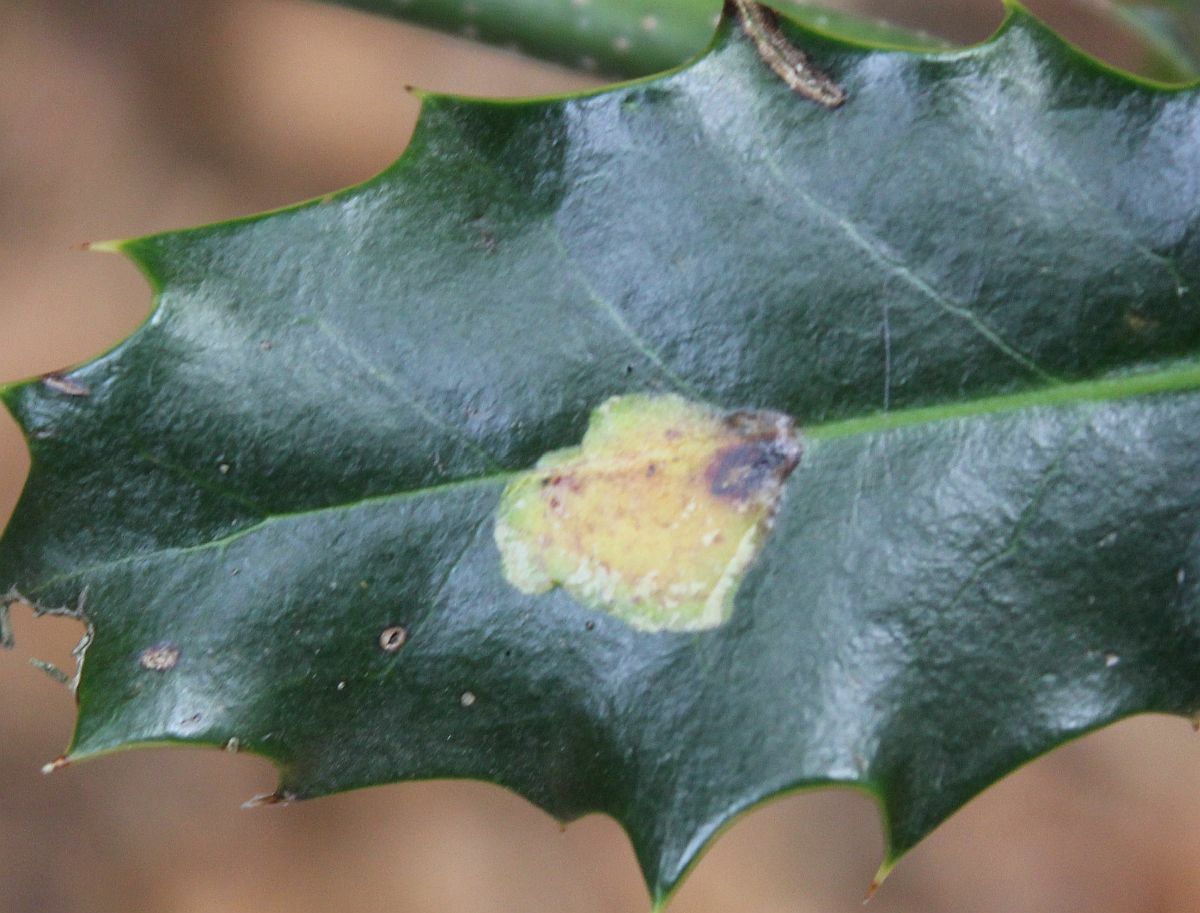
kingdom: Animalia
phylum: Arthropoda
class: Insecta
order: Diptera
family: Agromyzidae
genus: Phytomyza
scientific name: Phytomyza ilicis
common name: Holly leafminer
